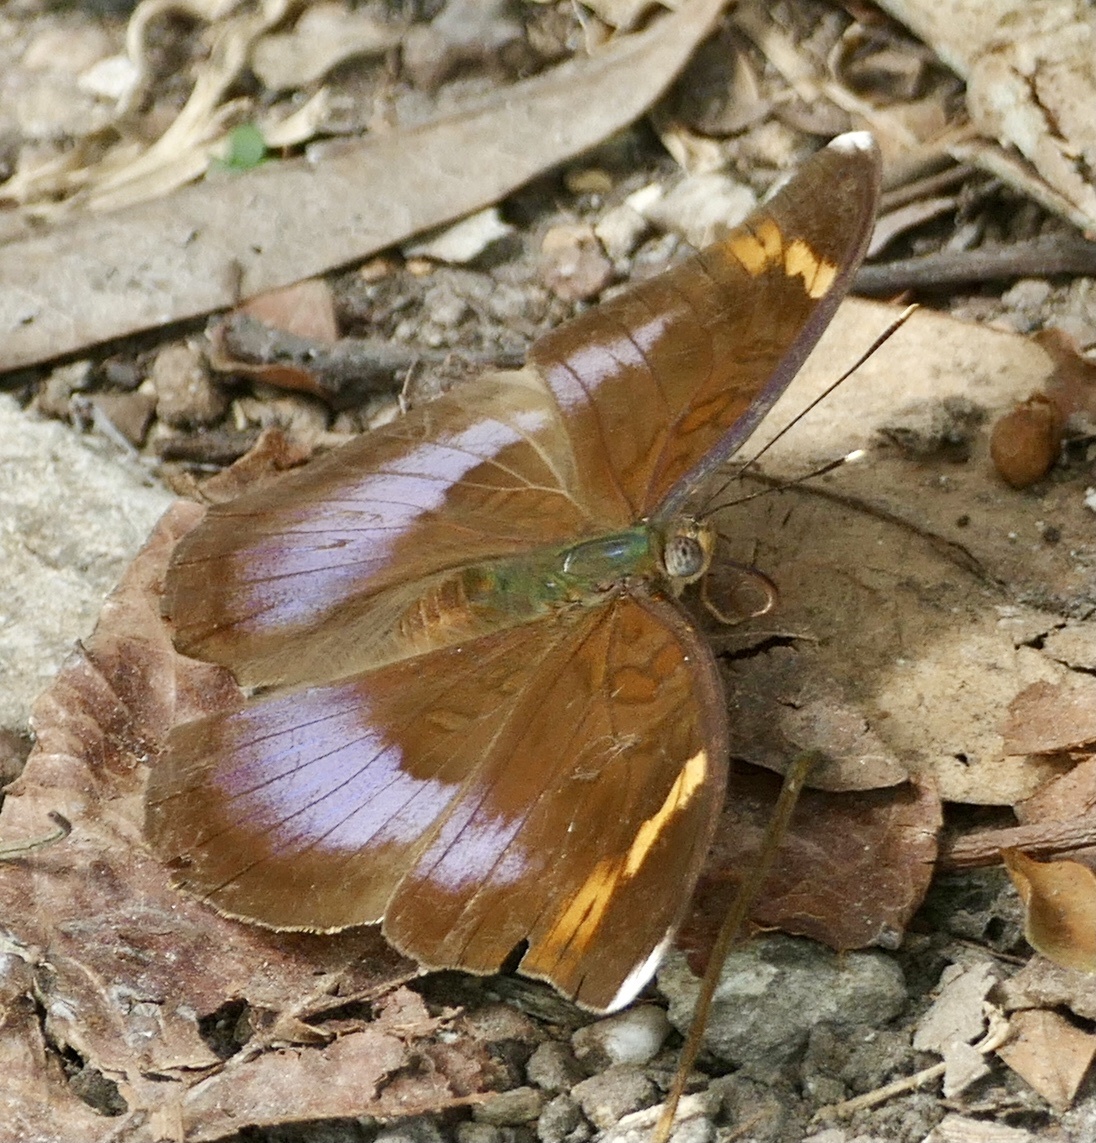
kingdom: Animalia
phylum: Arthropoda
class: Insecta
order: Lepidoptera
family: Nymphalidae
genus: Bebearia
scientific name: Bebearia phantasina
